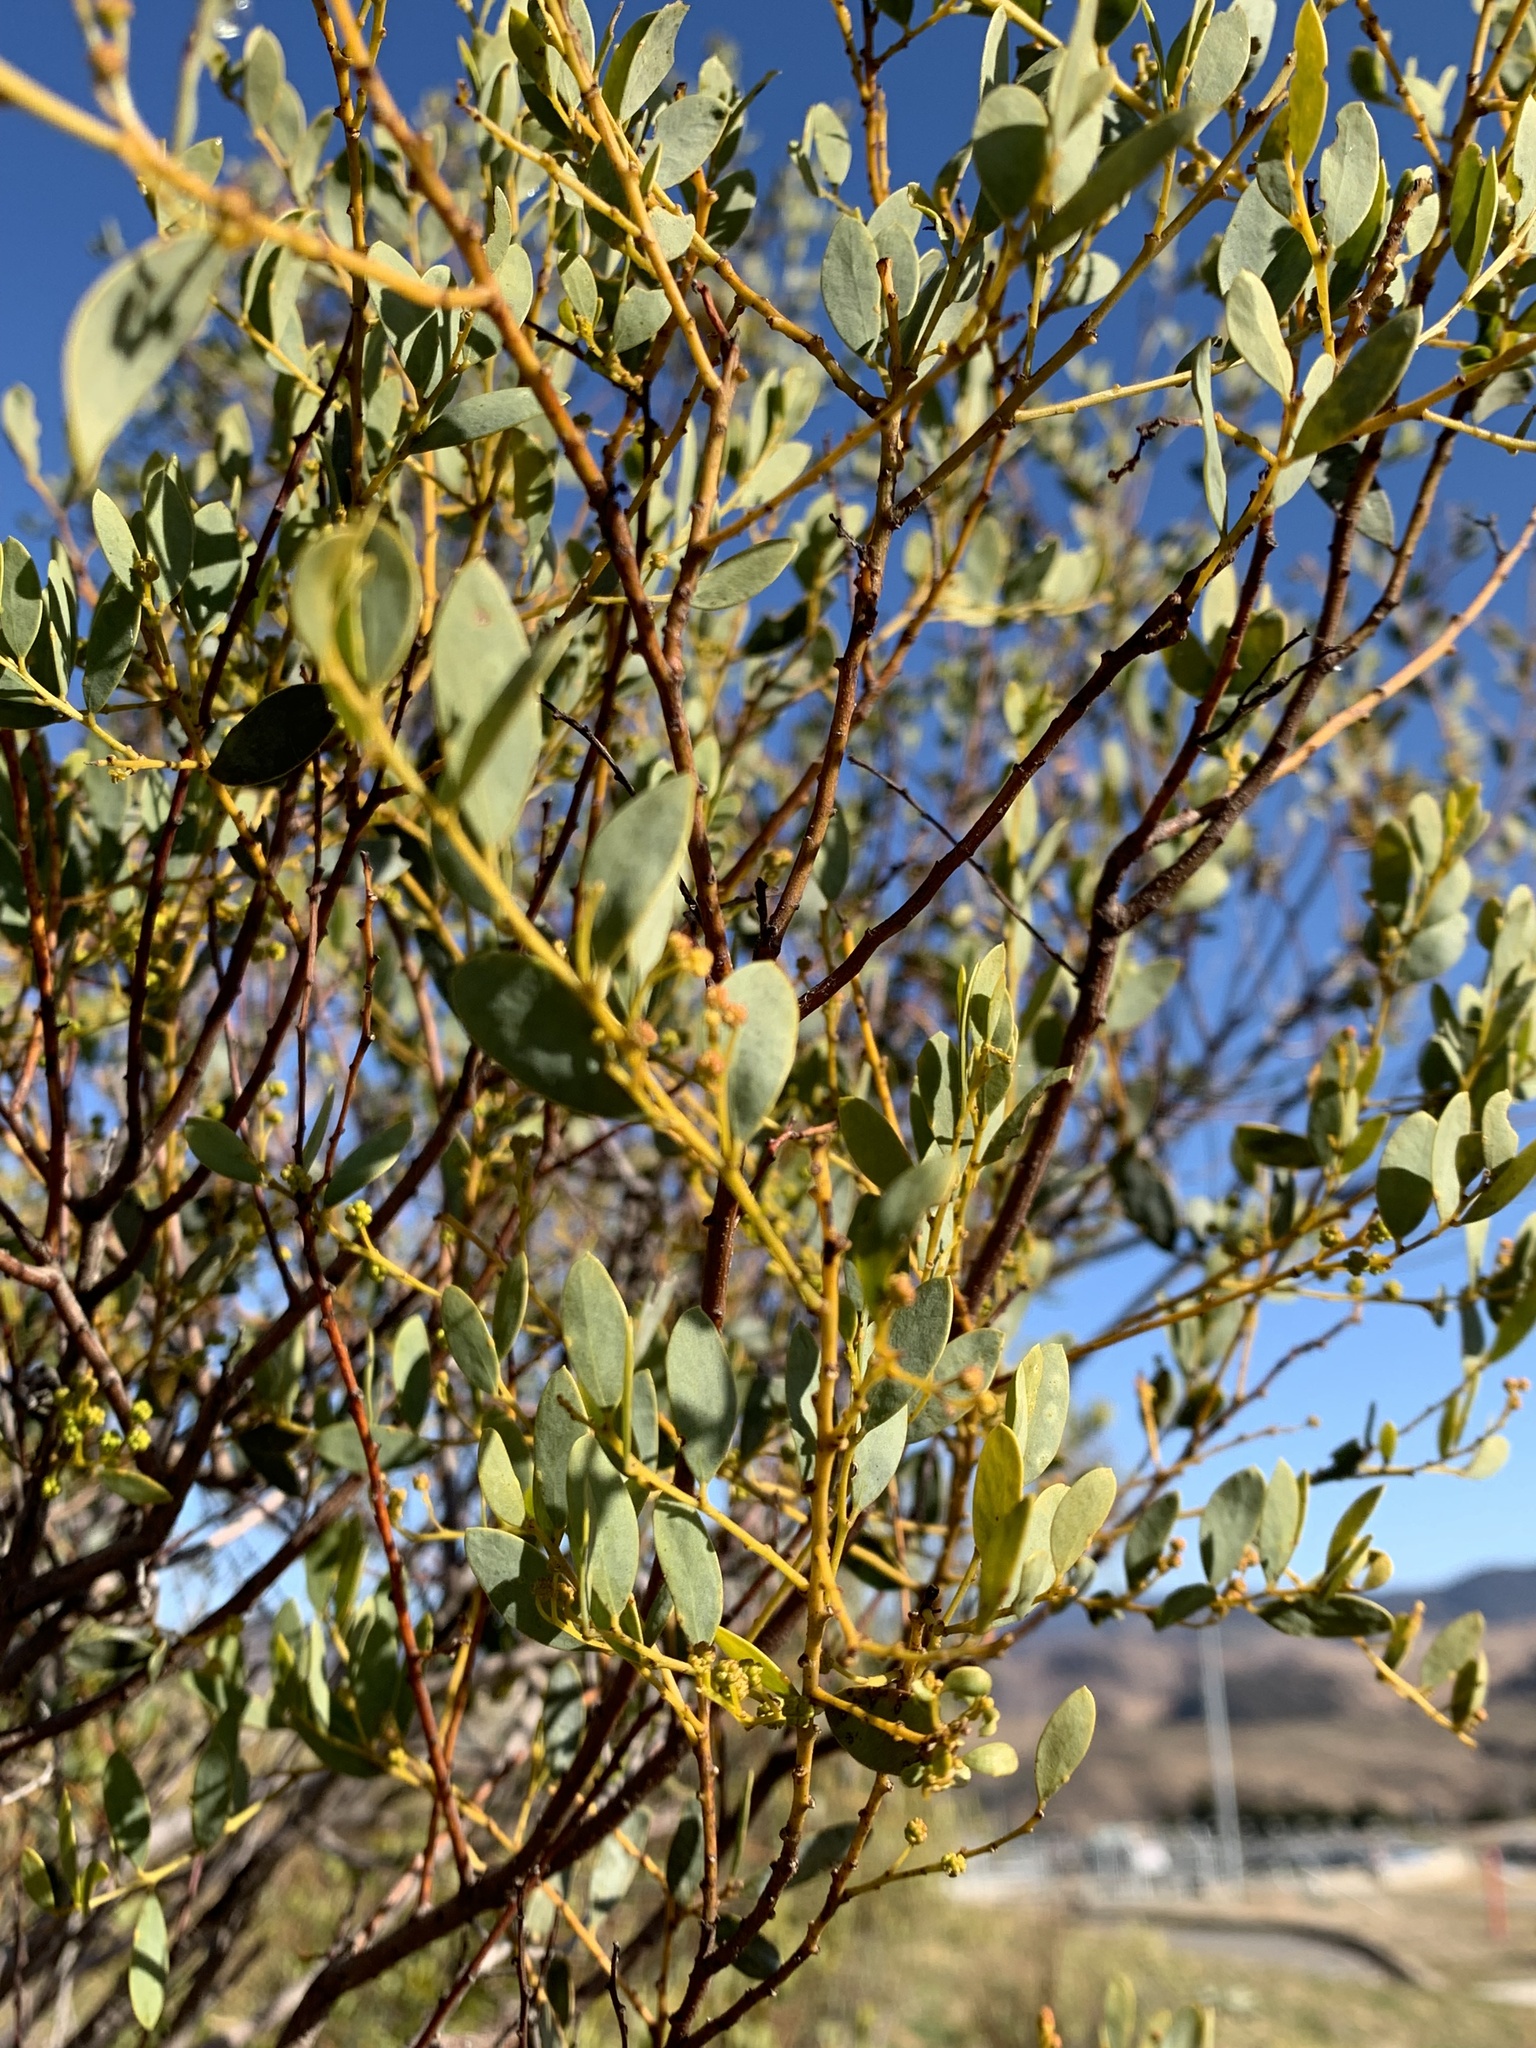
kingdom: Plantae
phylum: Tracheophyta
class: Magnoliopsida
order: Fabales
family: Fabaceae
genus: Acacia
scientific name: Acacia buxifolia
